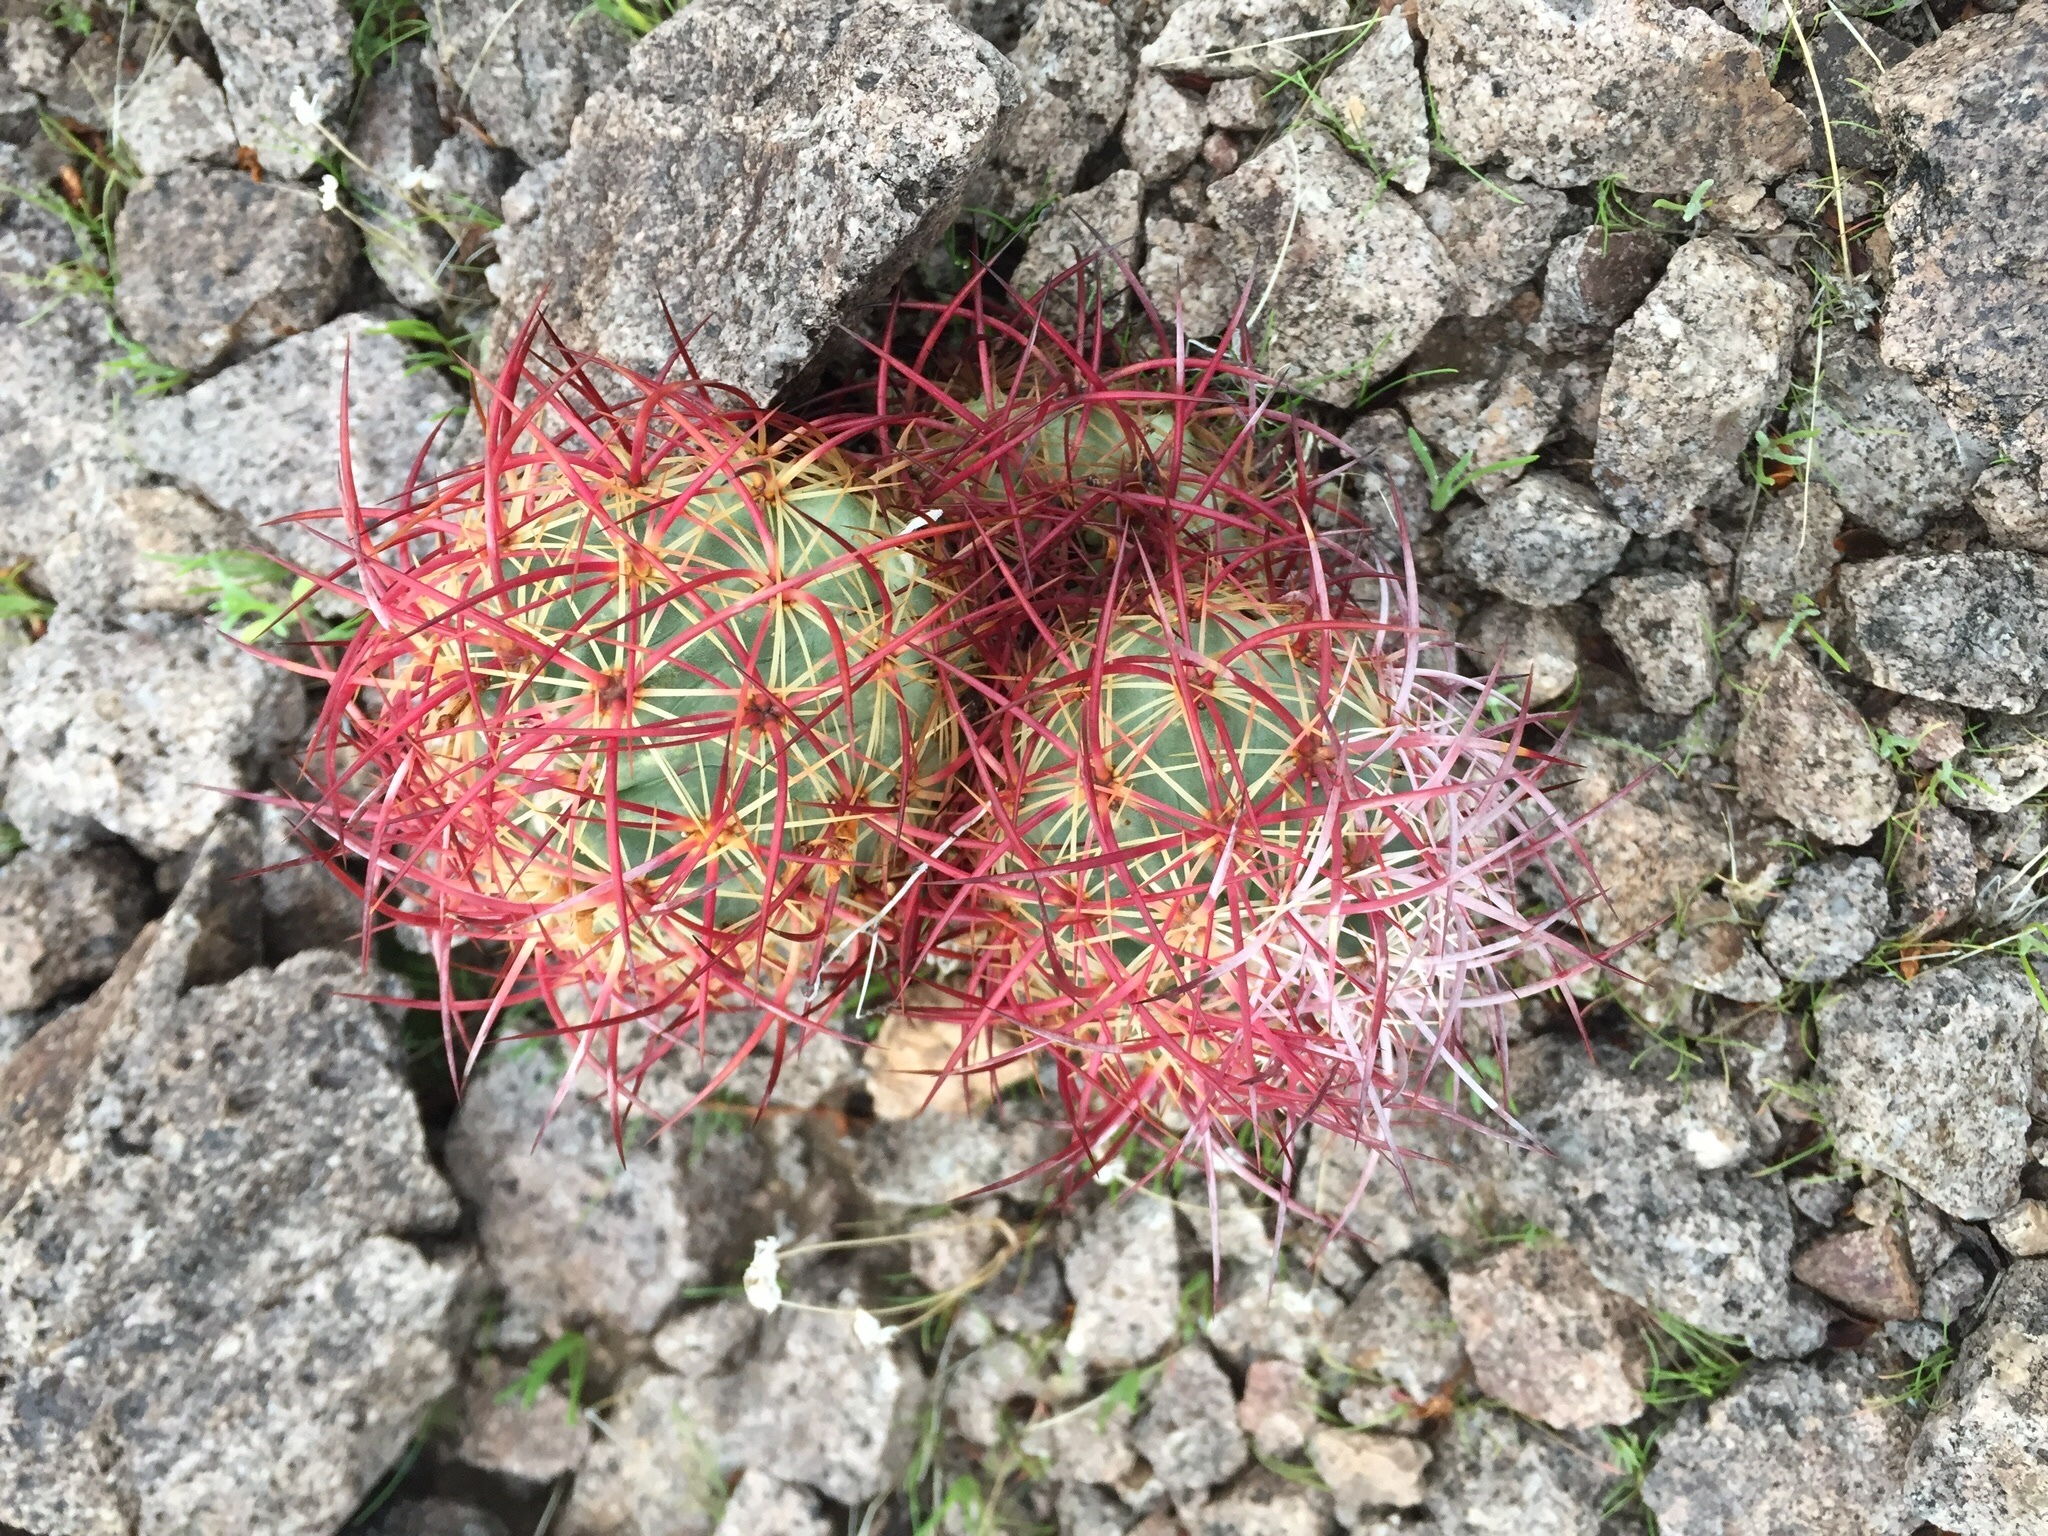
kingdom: Plantae
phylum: Tracheophyta
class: Magnoliopsida
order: Caryophyllales
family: Cactaceae
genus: Sclerocactus
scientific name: Sclerocactus johnsonii
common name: Eight-spine fishhook cactus
